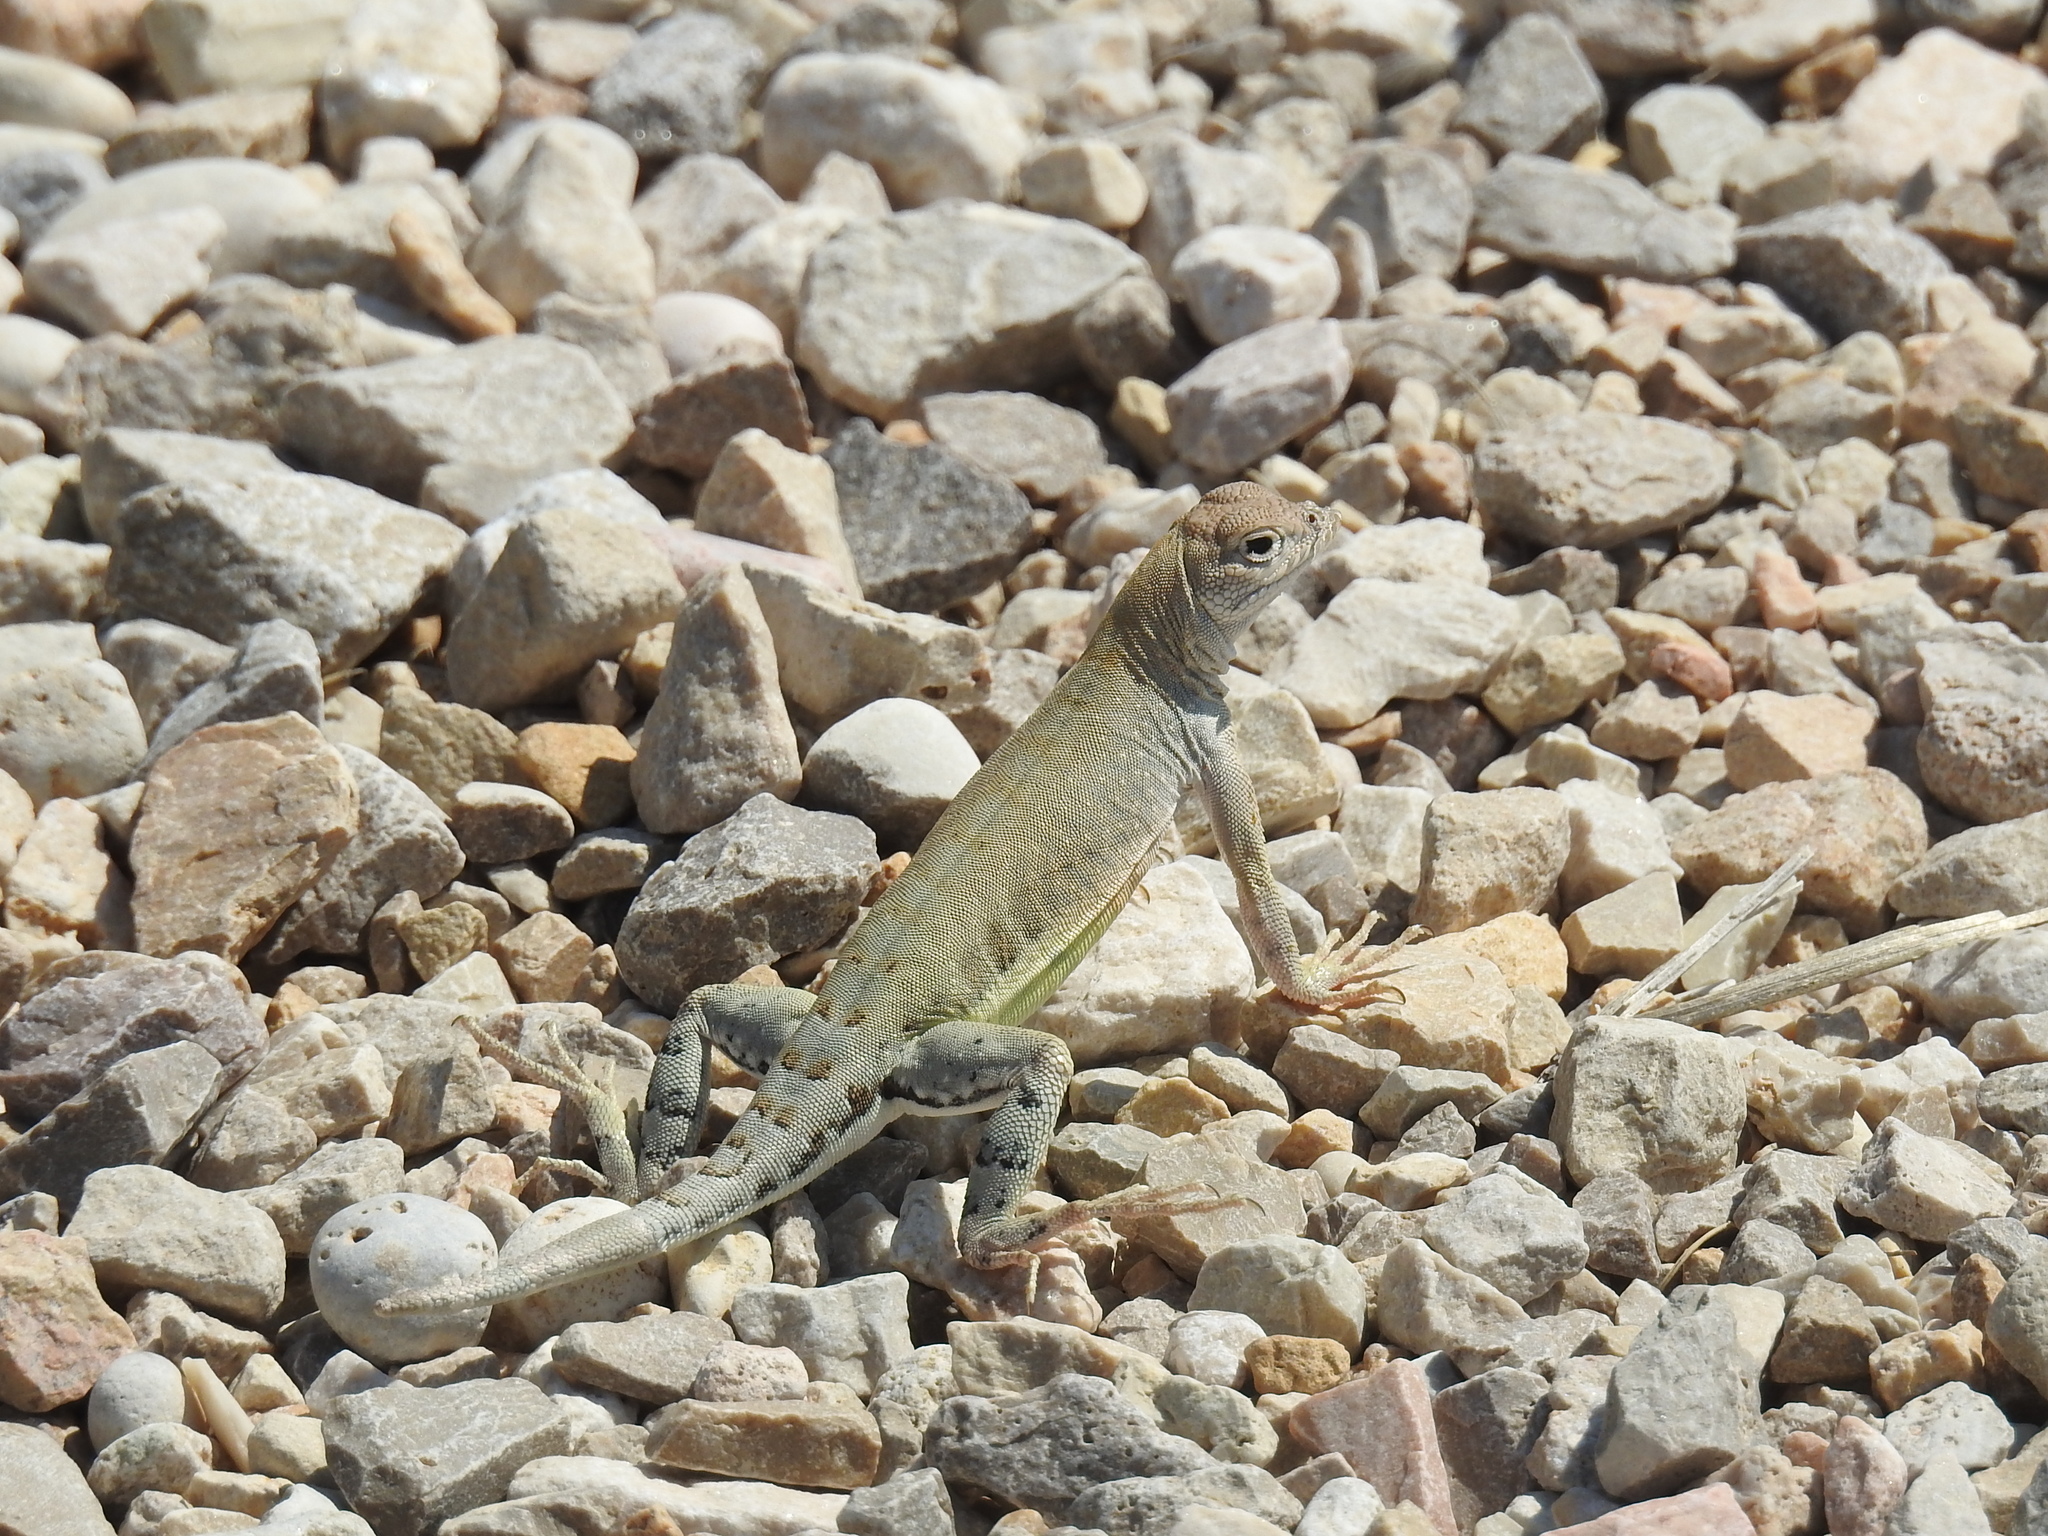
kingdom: Animalia
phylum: Chordata
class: Squamata
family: Phrynosomatidae
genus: Cophosaurus
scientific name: Cophosaurus texanus
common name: Greater earless lizard
